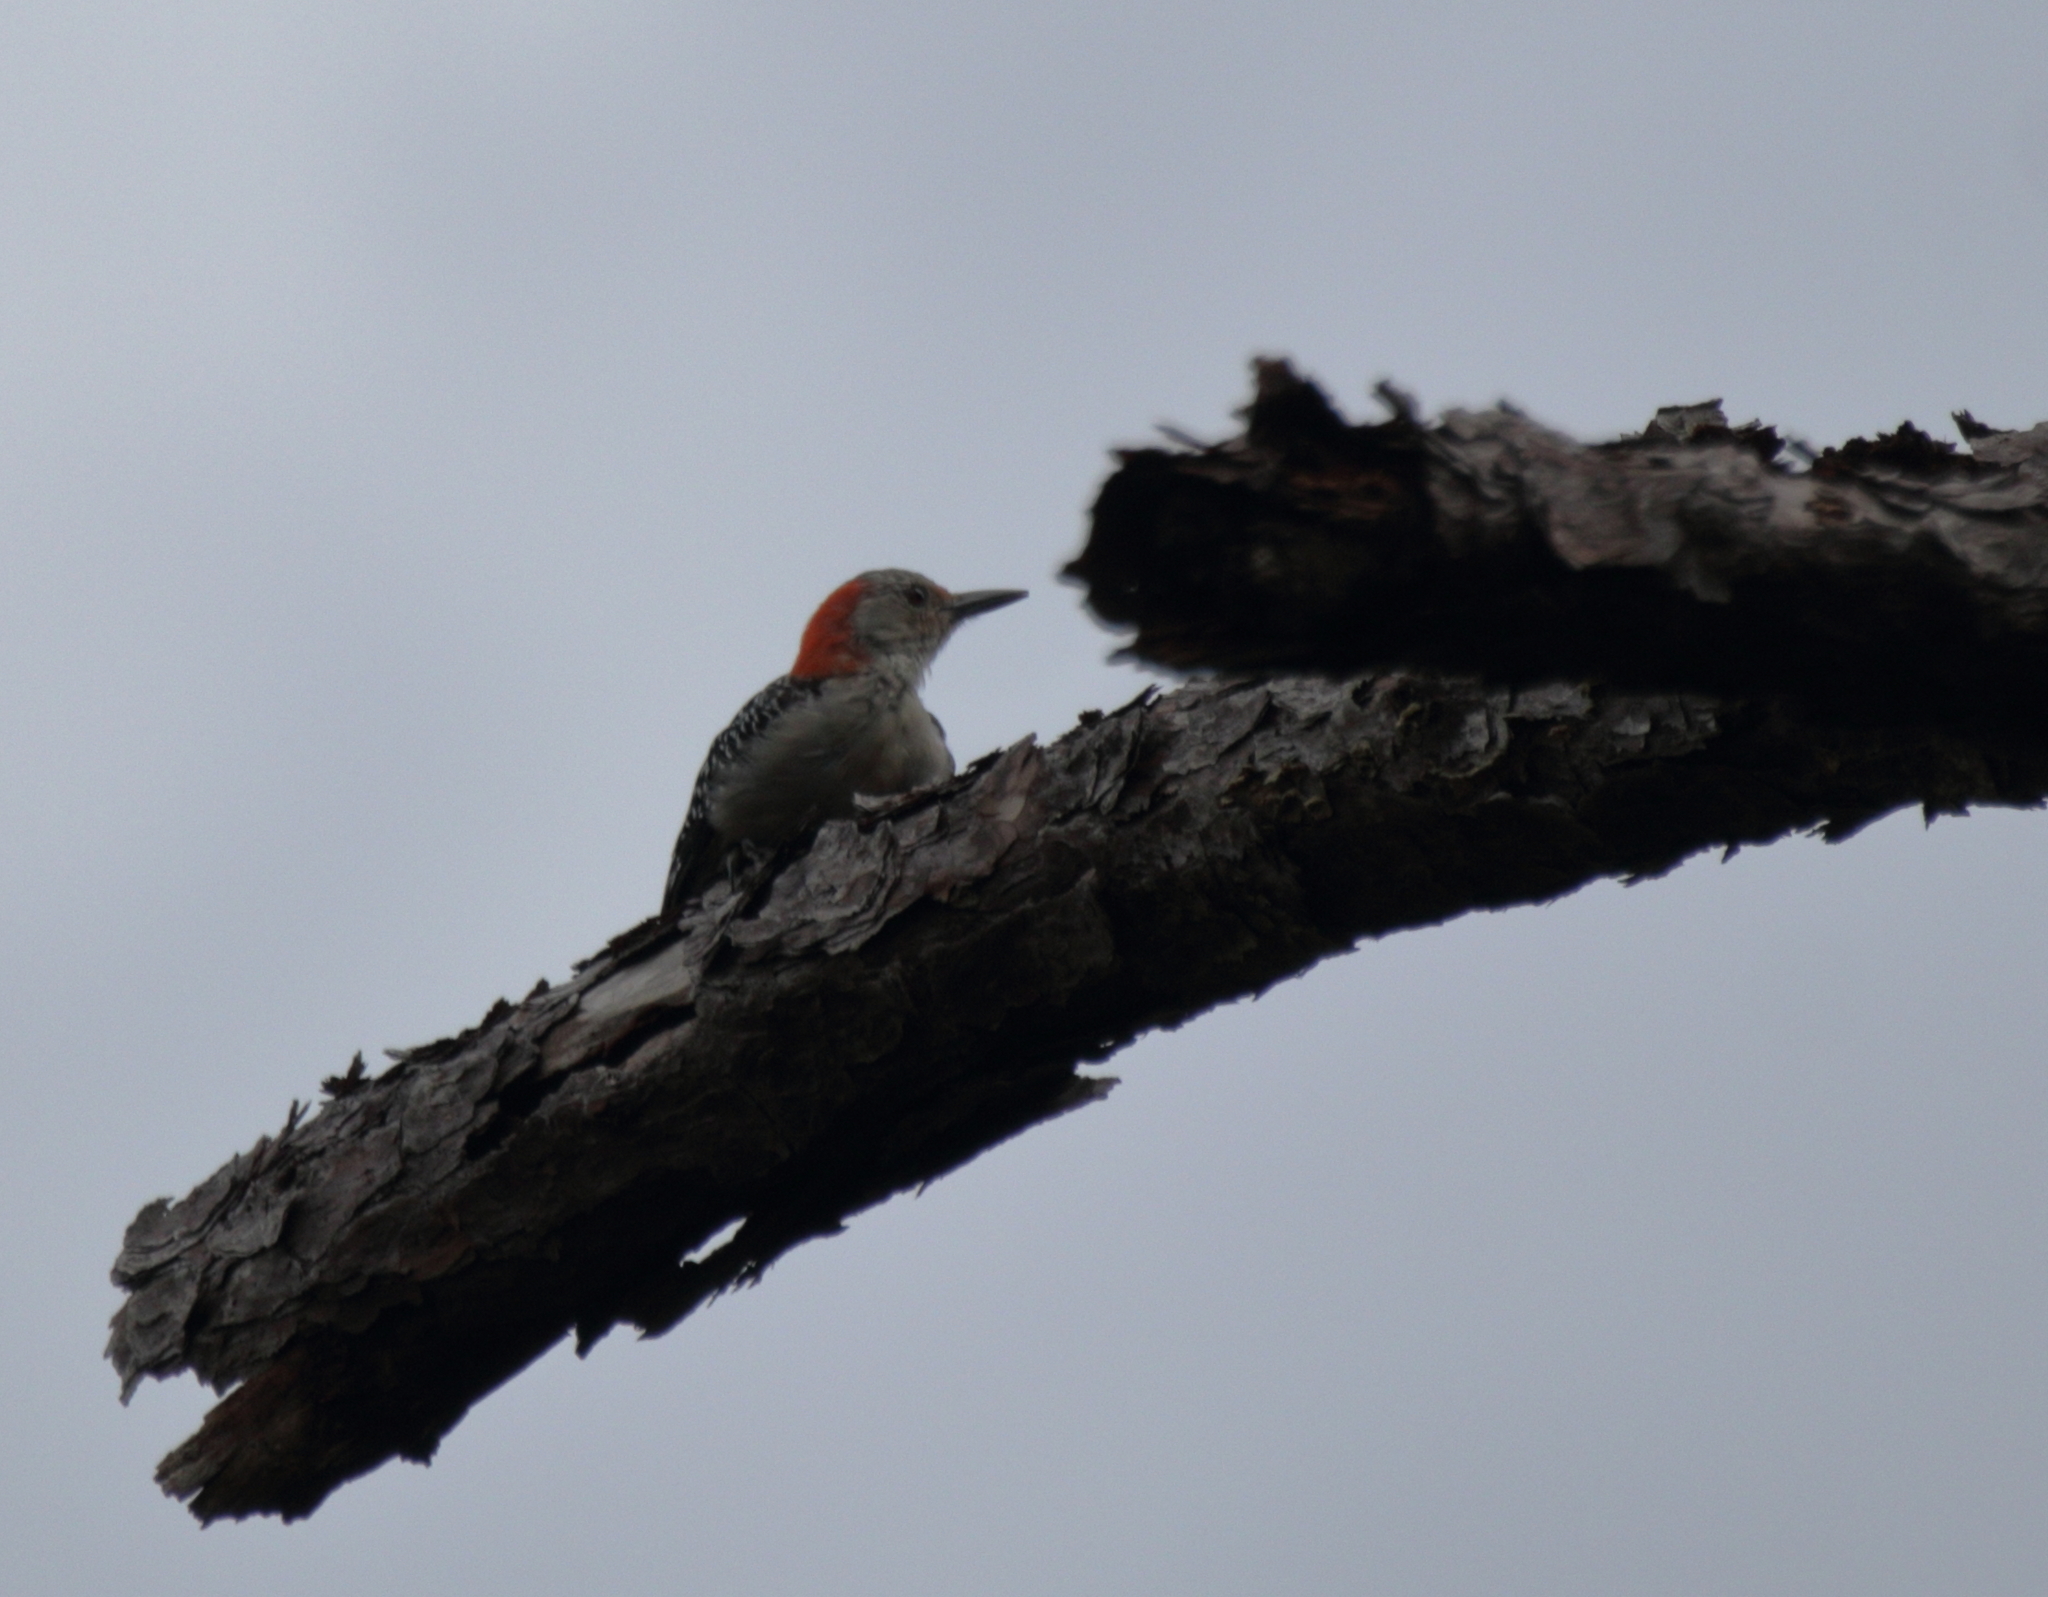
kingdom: Animalia
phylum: Chordata
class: Aves
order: Piciformes
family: Picidae
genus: Melanerpes
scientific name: Melanerpes carolinus
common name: Red-bellied woodpecker
